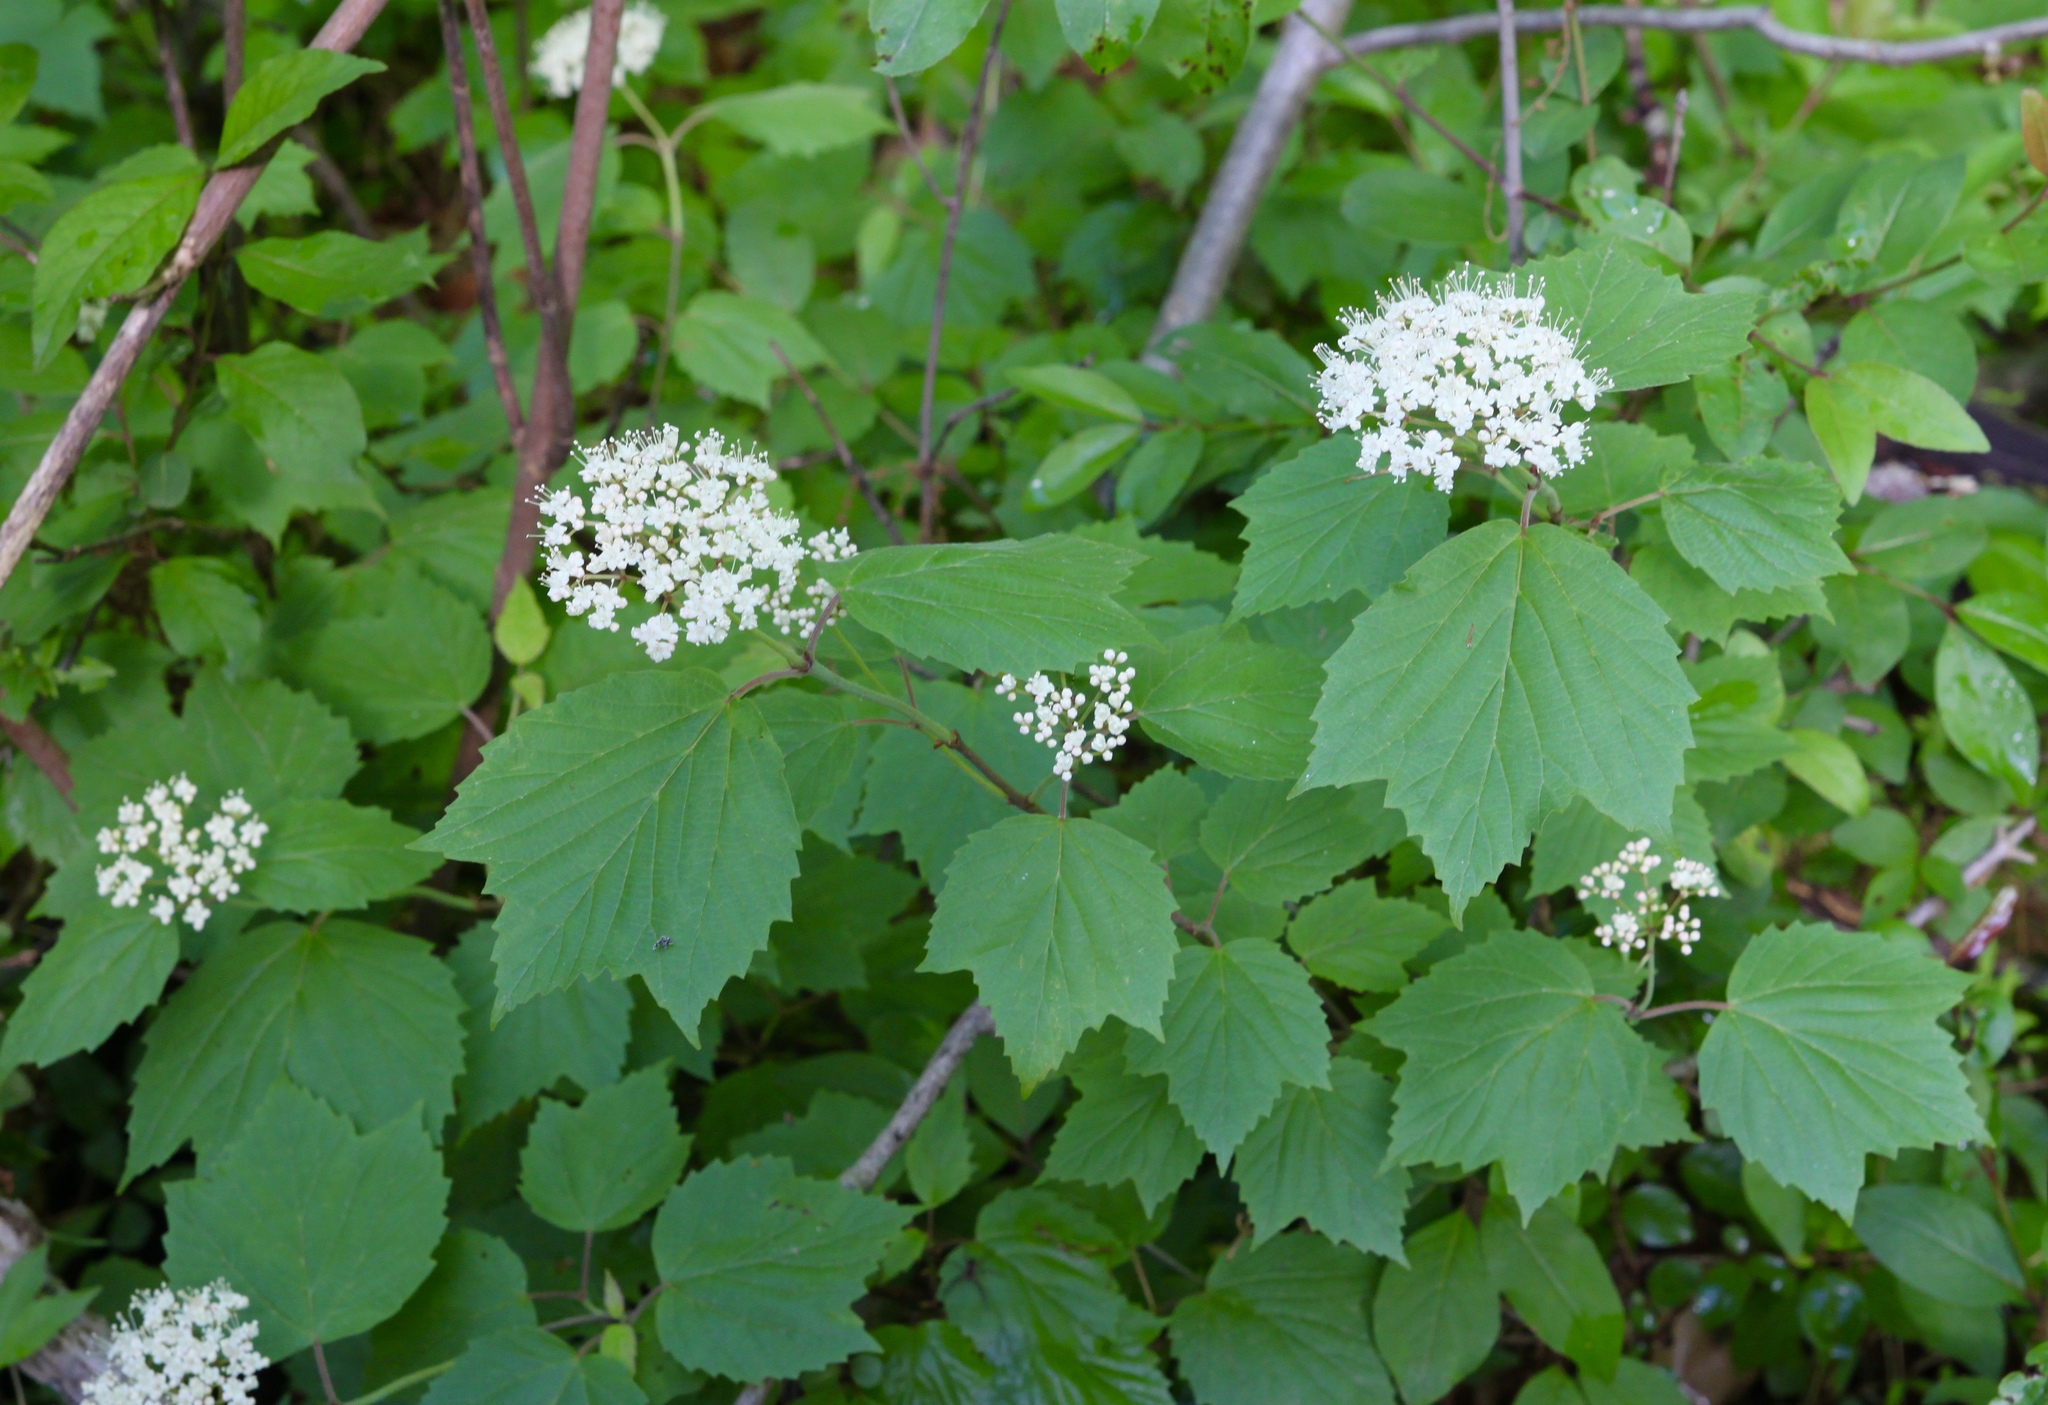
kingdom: Plantae
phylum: Tracheophyta
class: Magnoliopsida
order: Dipsacales
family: Viburnaceae
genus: Viburnum
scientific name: Viburnum acerifolium
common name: Dockmackie
